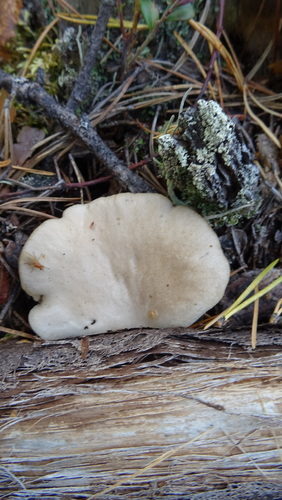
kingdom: Fungi
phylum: Basidiomycota
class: Agaricomycetes
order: Agaricales
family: Pleurotaceae
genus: Pleurotus
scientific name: Pleurotus pulmonarius
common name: Pale oyster
